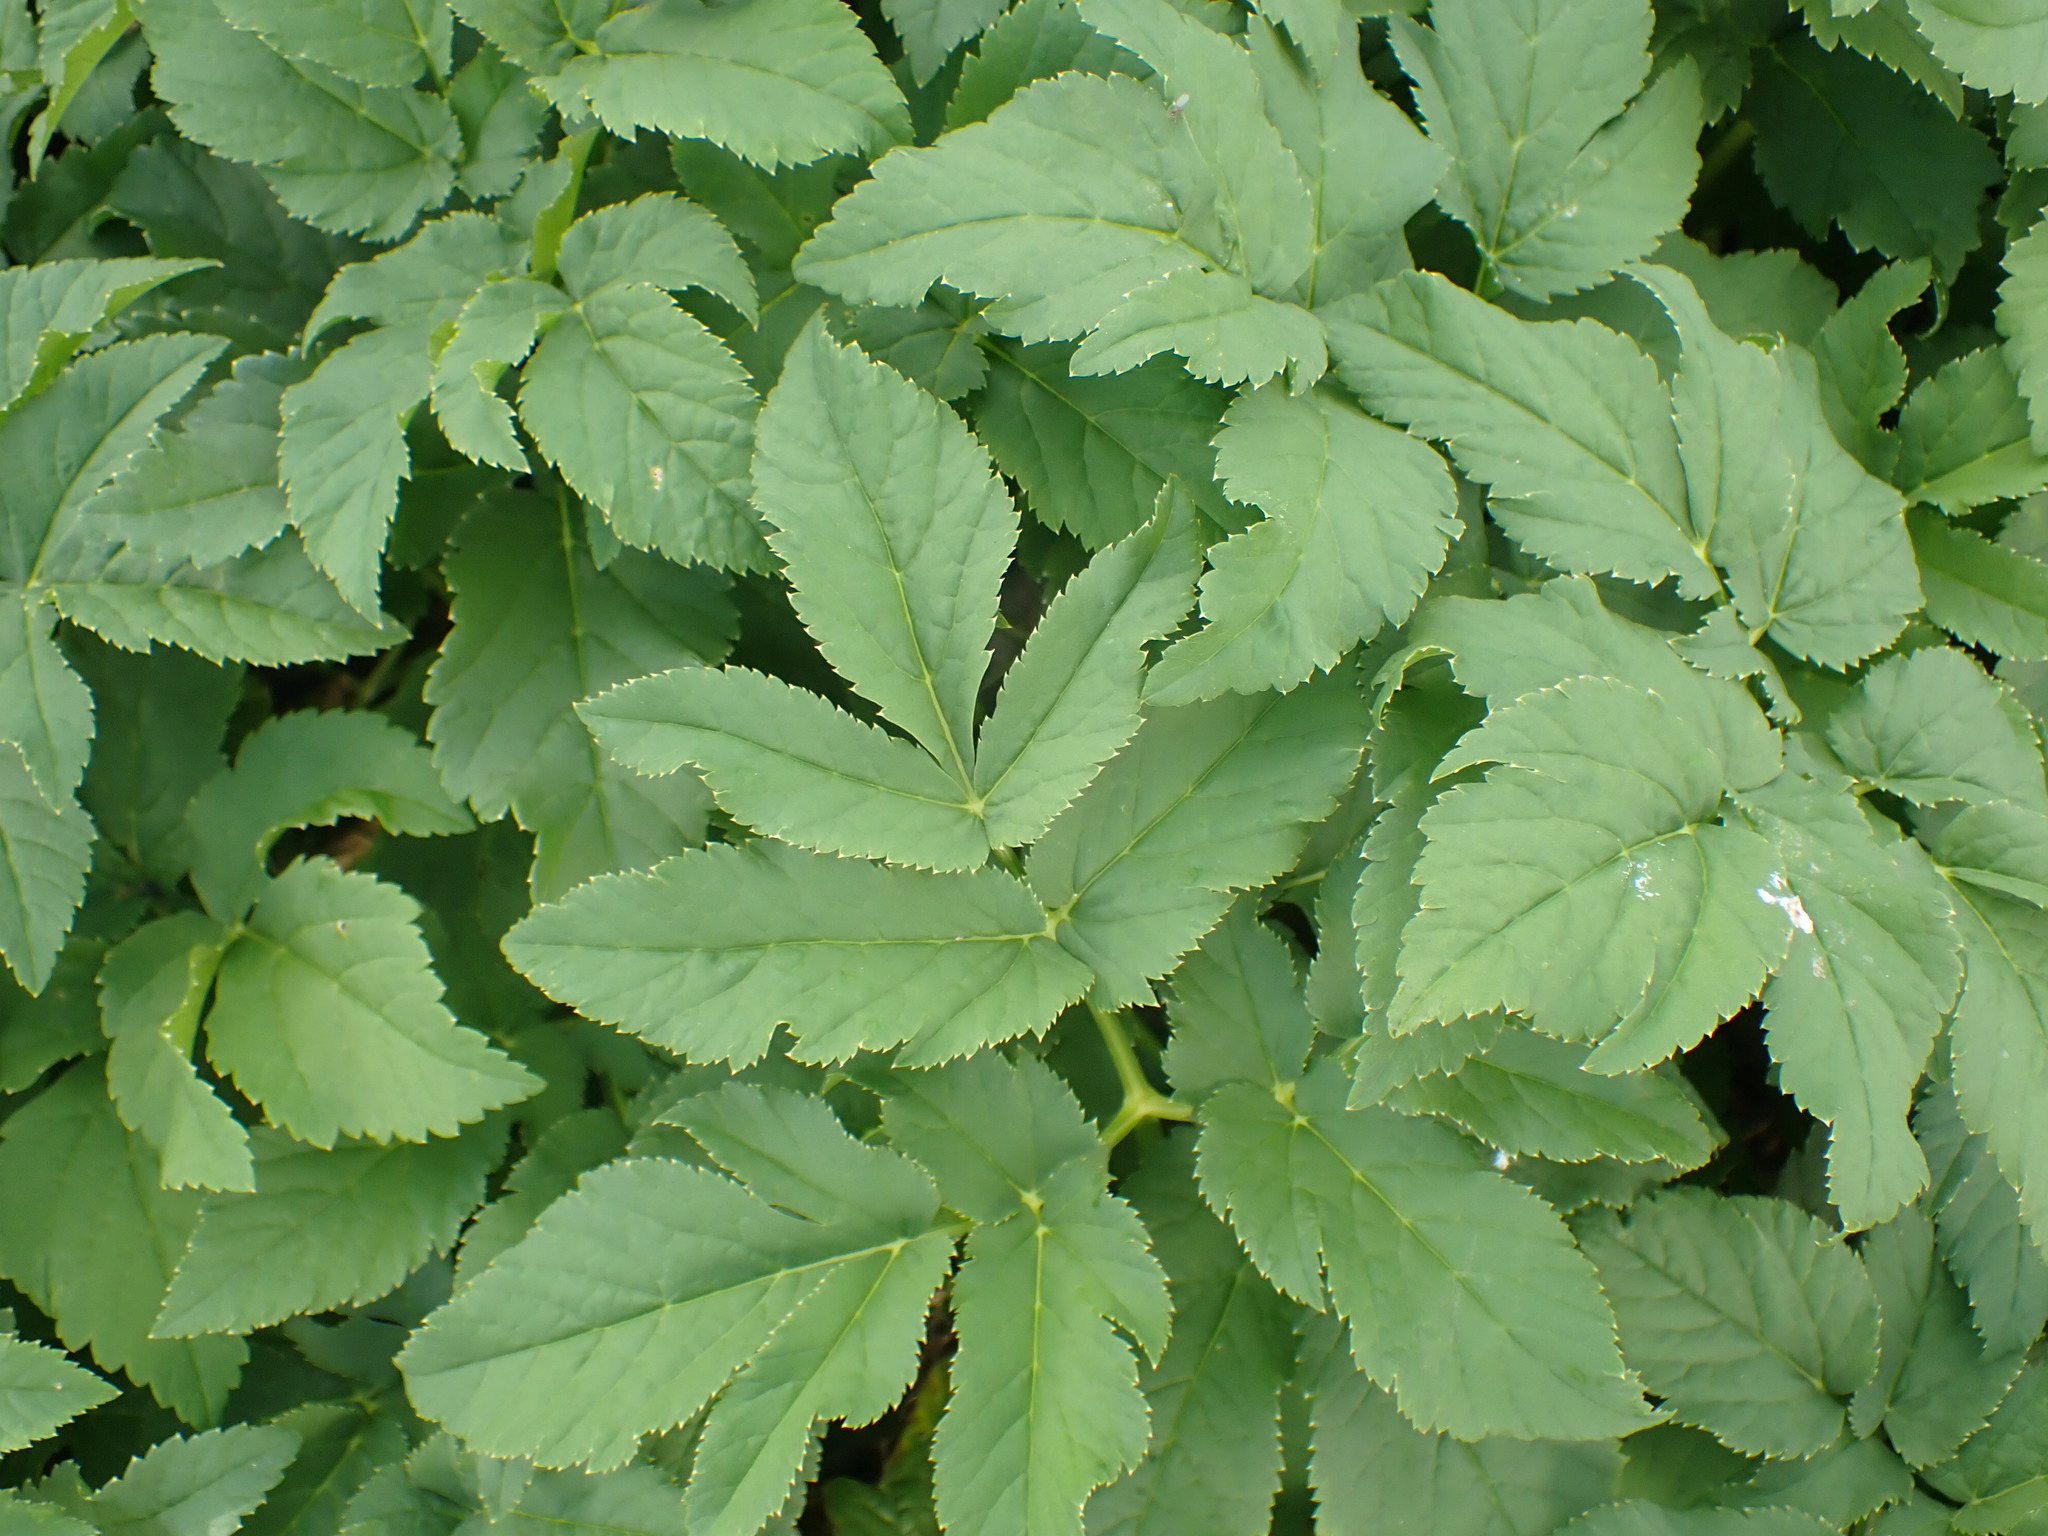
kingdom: Plantae
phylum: Tracheophyta
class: Magnoliopsida
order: Apiales
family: Apiaceae
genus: Aegopodium
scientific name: Aegopodium podagraria
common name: Ground-elder
